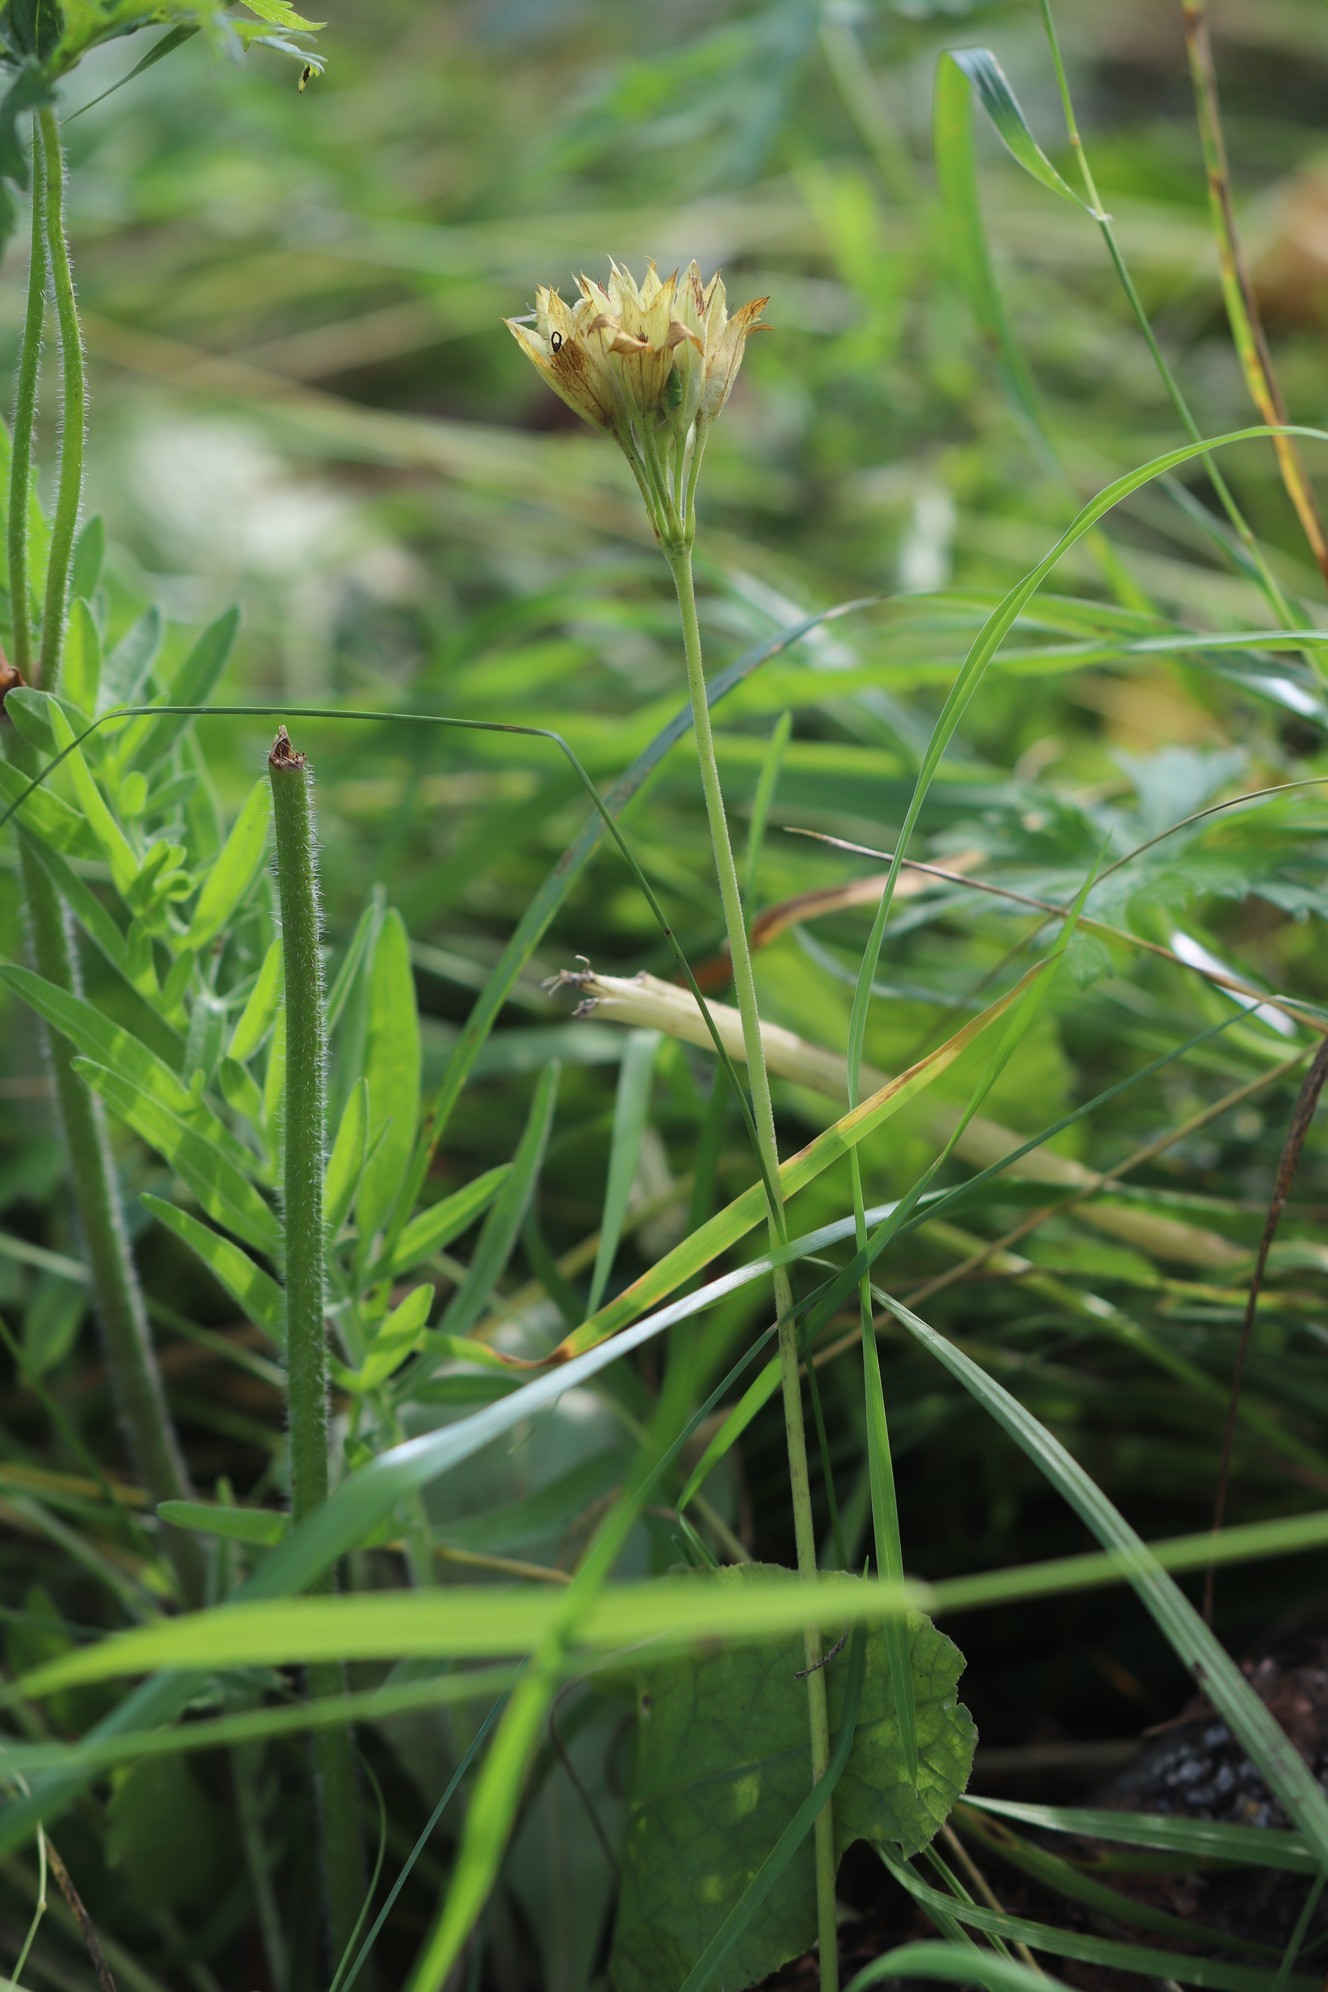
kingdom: Plantae
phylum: Tracheophyta
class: Magnoliopsida
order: Ericales
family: Primulaceae
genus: Primula
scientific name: Primula veris
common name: Cowslip
